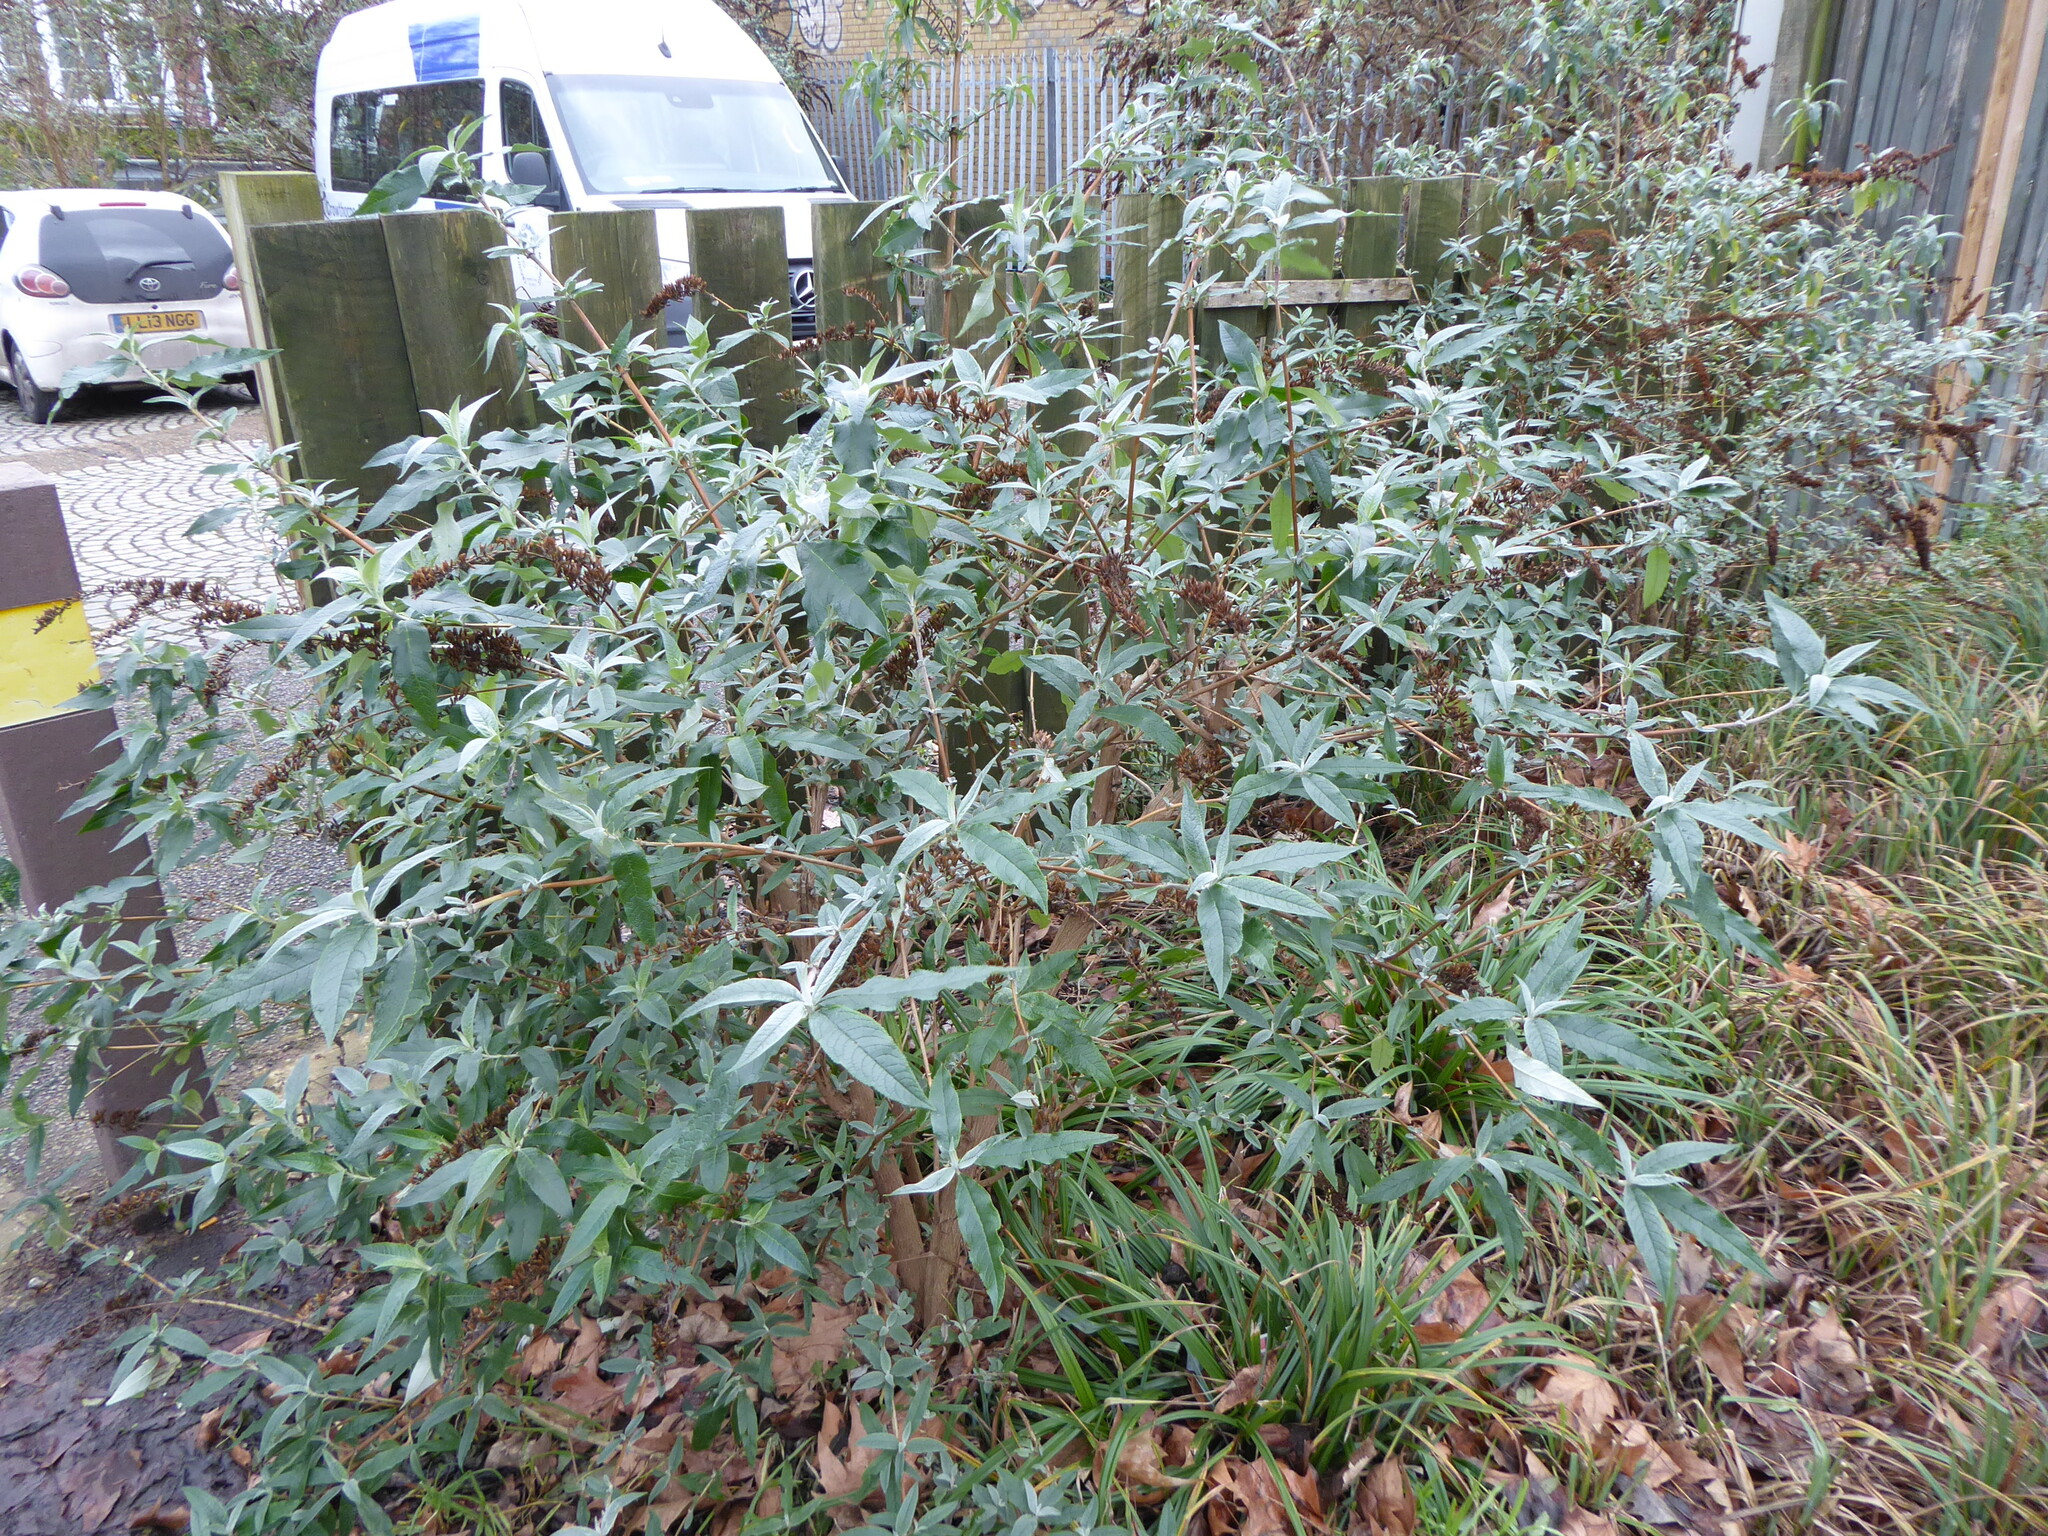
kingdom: Plantae
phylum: Tracheophyta
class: Magnoliopsida
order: Lamiales
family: Scrophulariaceae
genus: Buddleja
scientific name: Buddleja davidii
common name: Butterfly-bush
